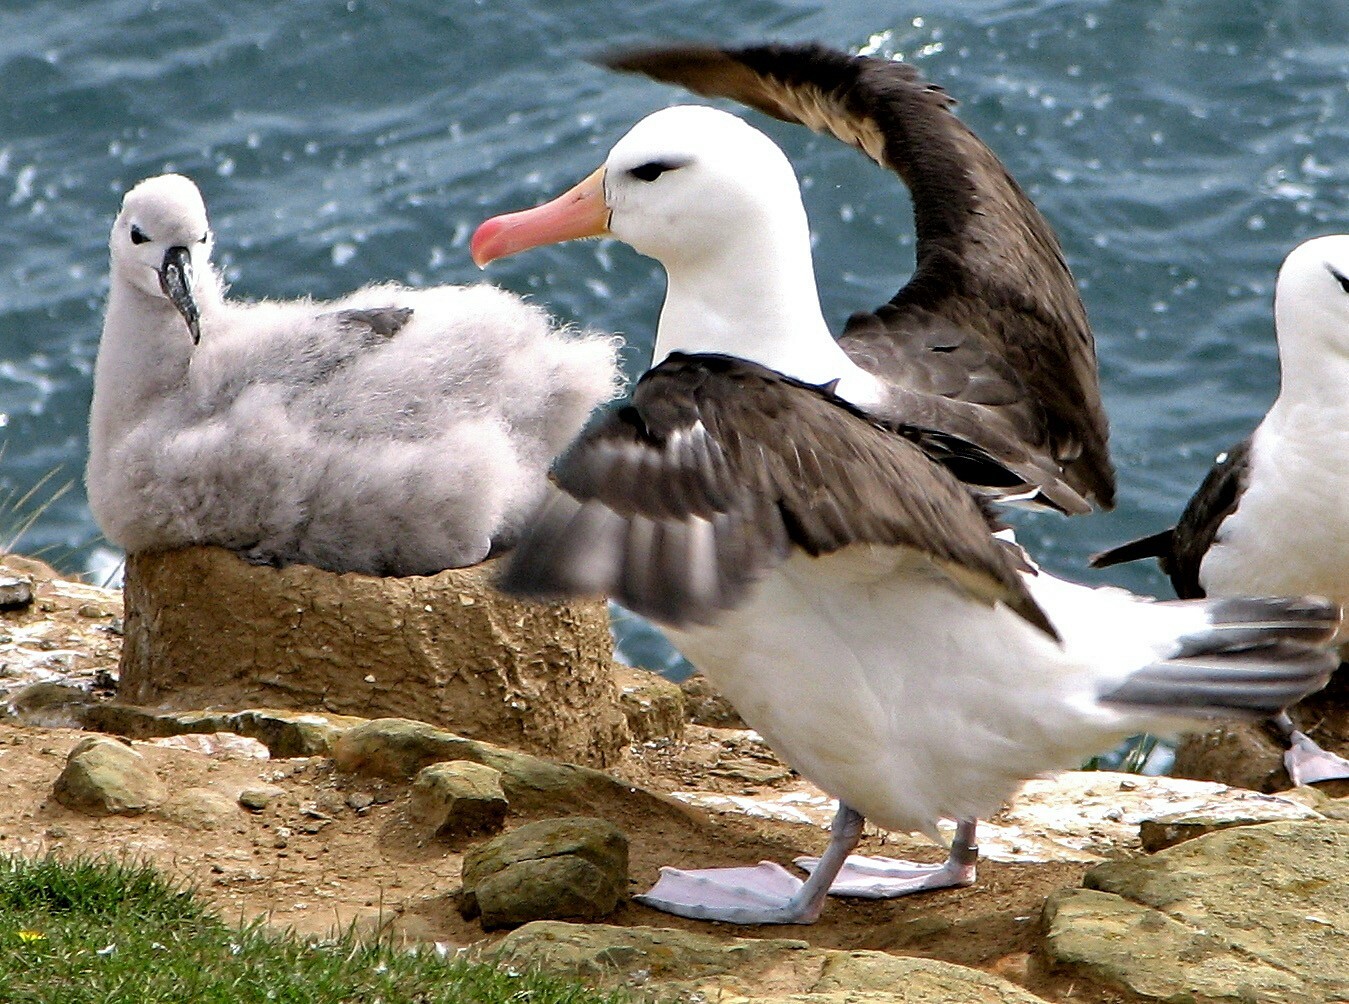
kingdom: Animalia
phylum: Chordata
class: Aves
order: Procellariiformes
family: Diomedeidae
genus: Thalassarche
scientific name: Thalassarche melanophris
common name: Black-browed albatross
